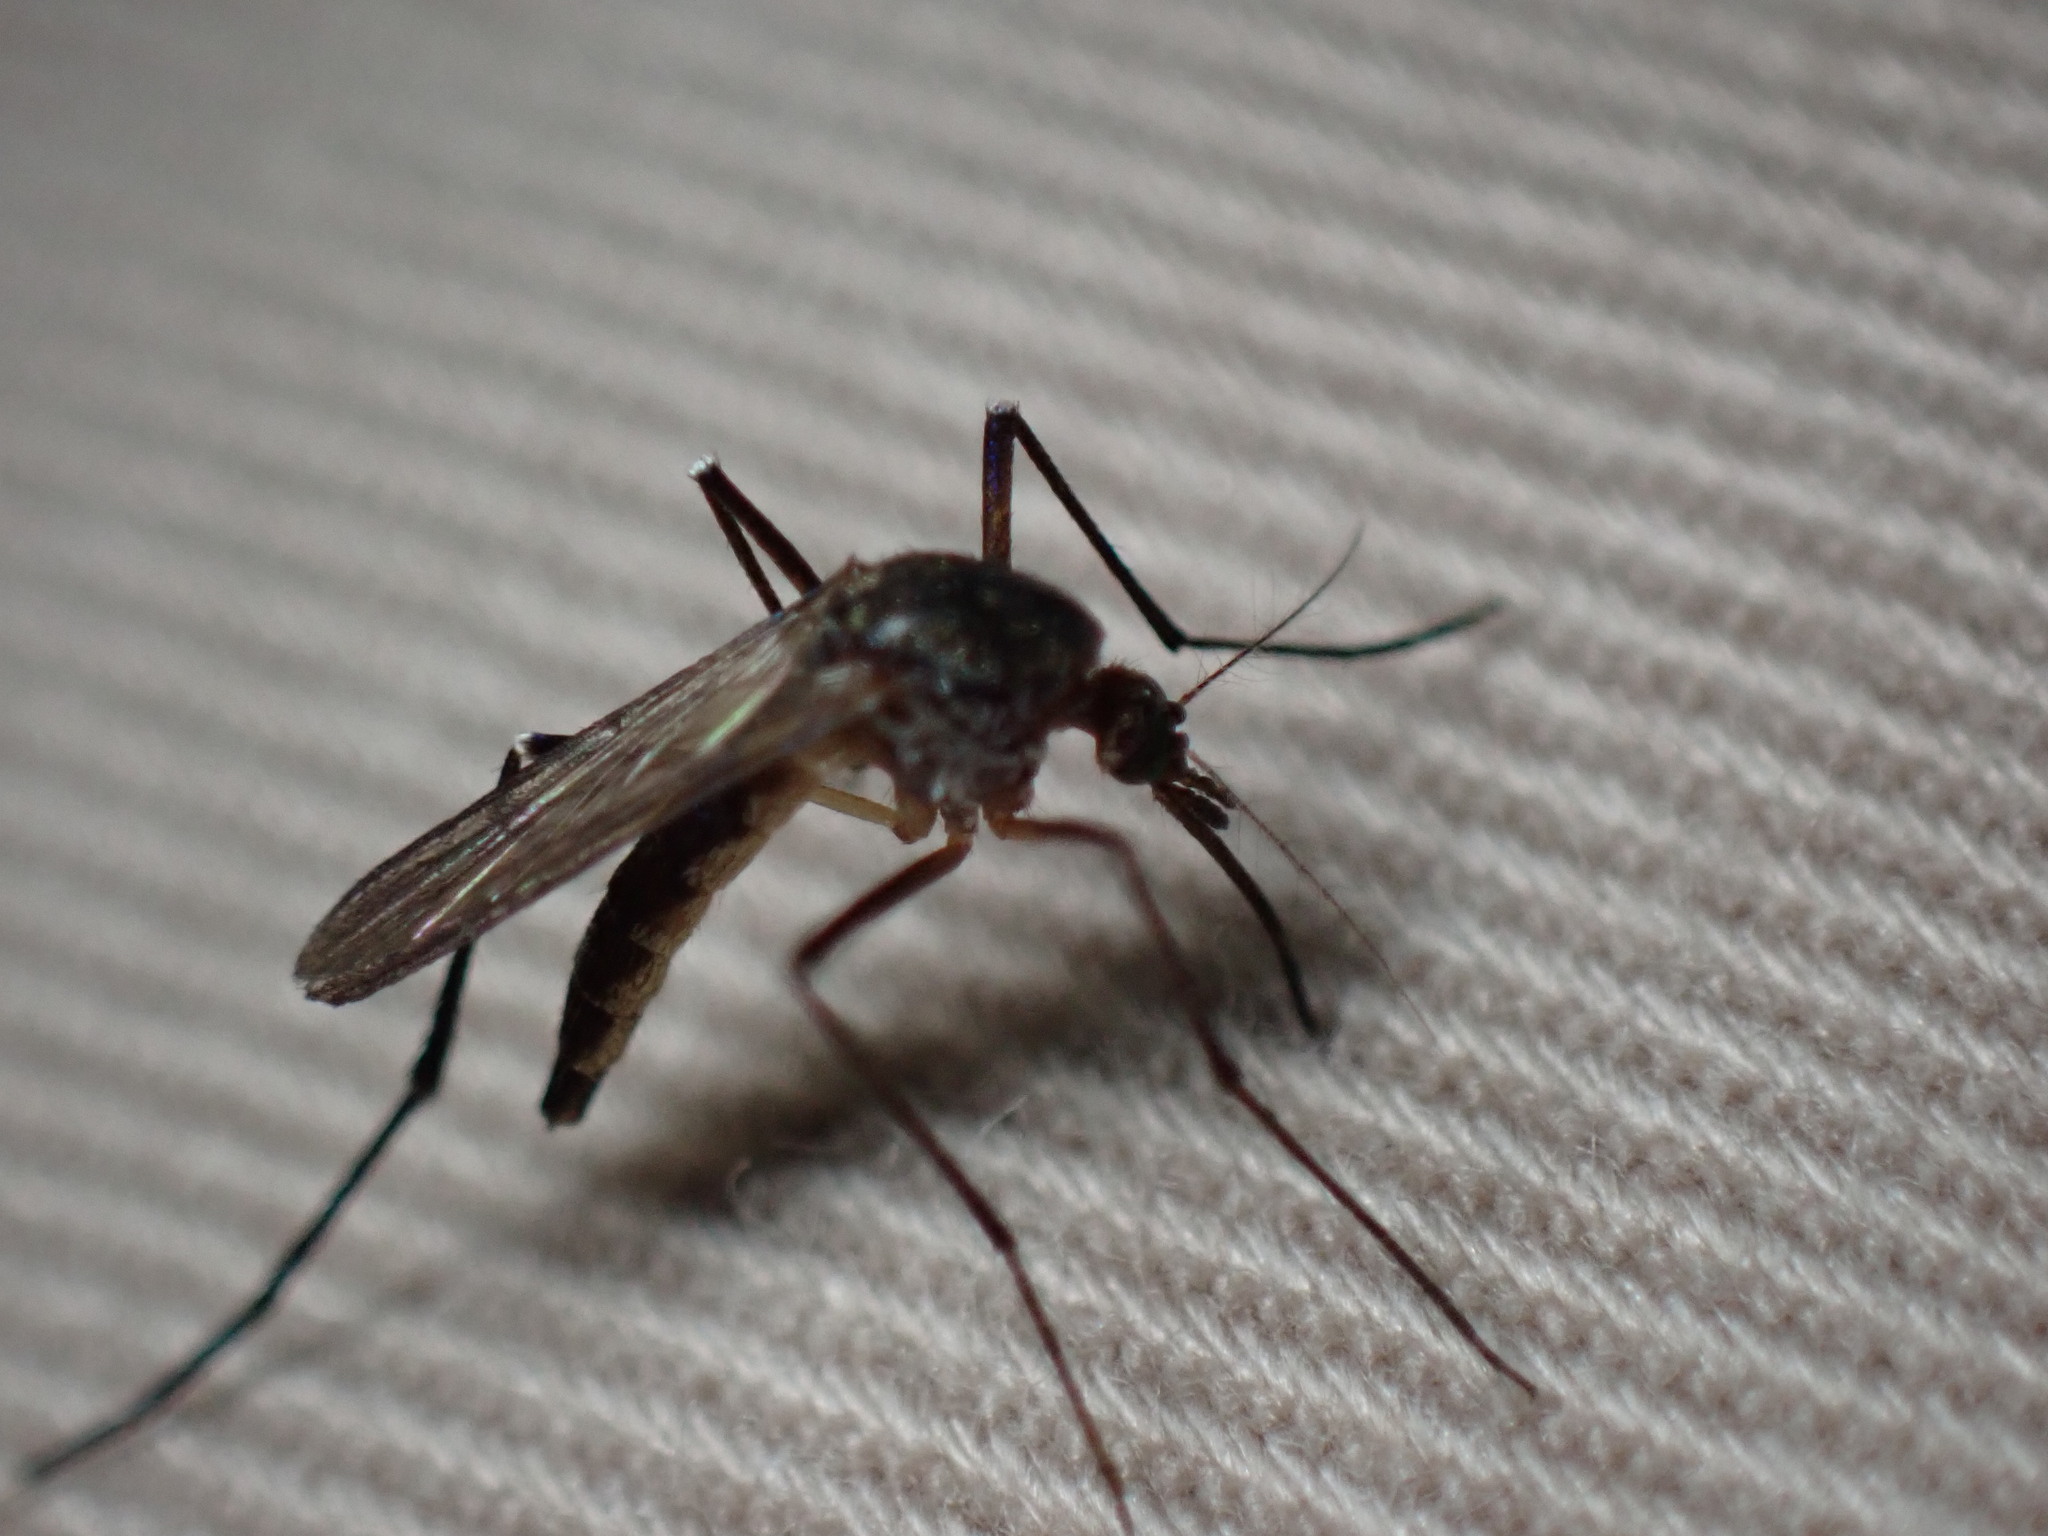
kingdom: Animalia
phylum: Arthropoda
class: Insecta
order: Diptera
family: Culicidae
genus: Psorophora
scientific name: Psorophora ferox
